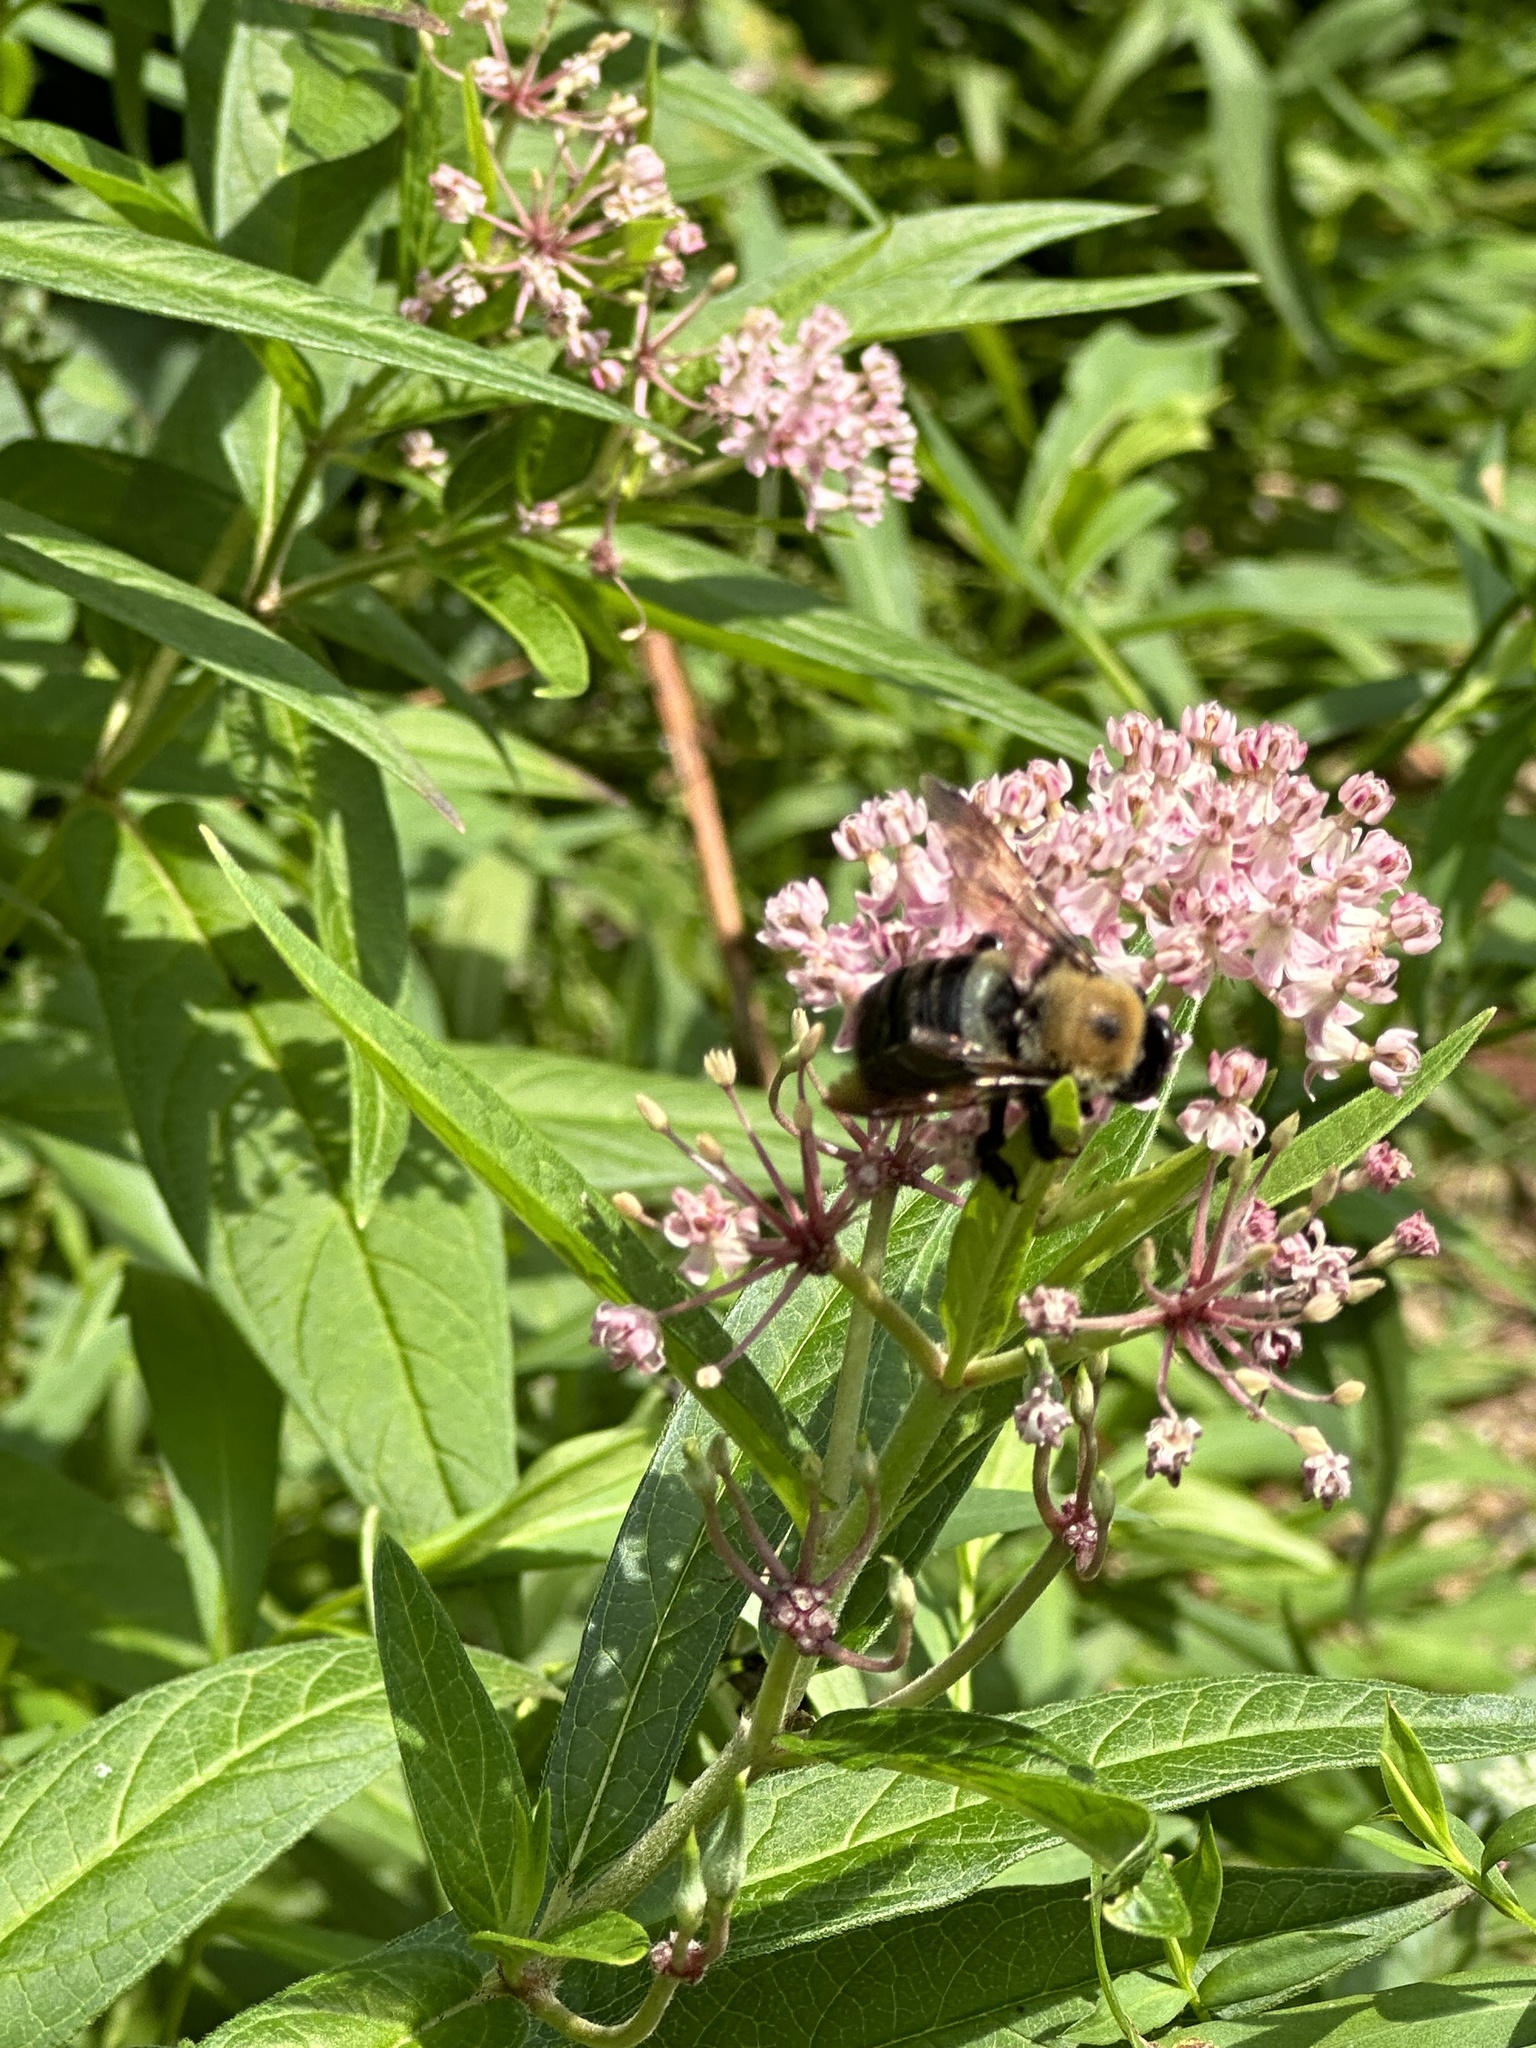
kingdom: Animalia
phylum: Arthropoda
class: Insecta
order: Hymenoptera
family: Apidae
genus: Xylocopa
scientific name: Xylocopa virginica
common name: Carpenter bee
